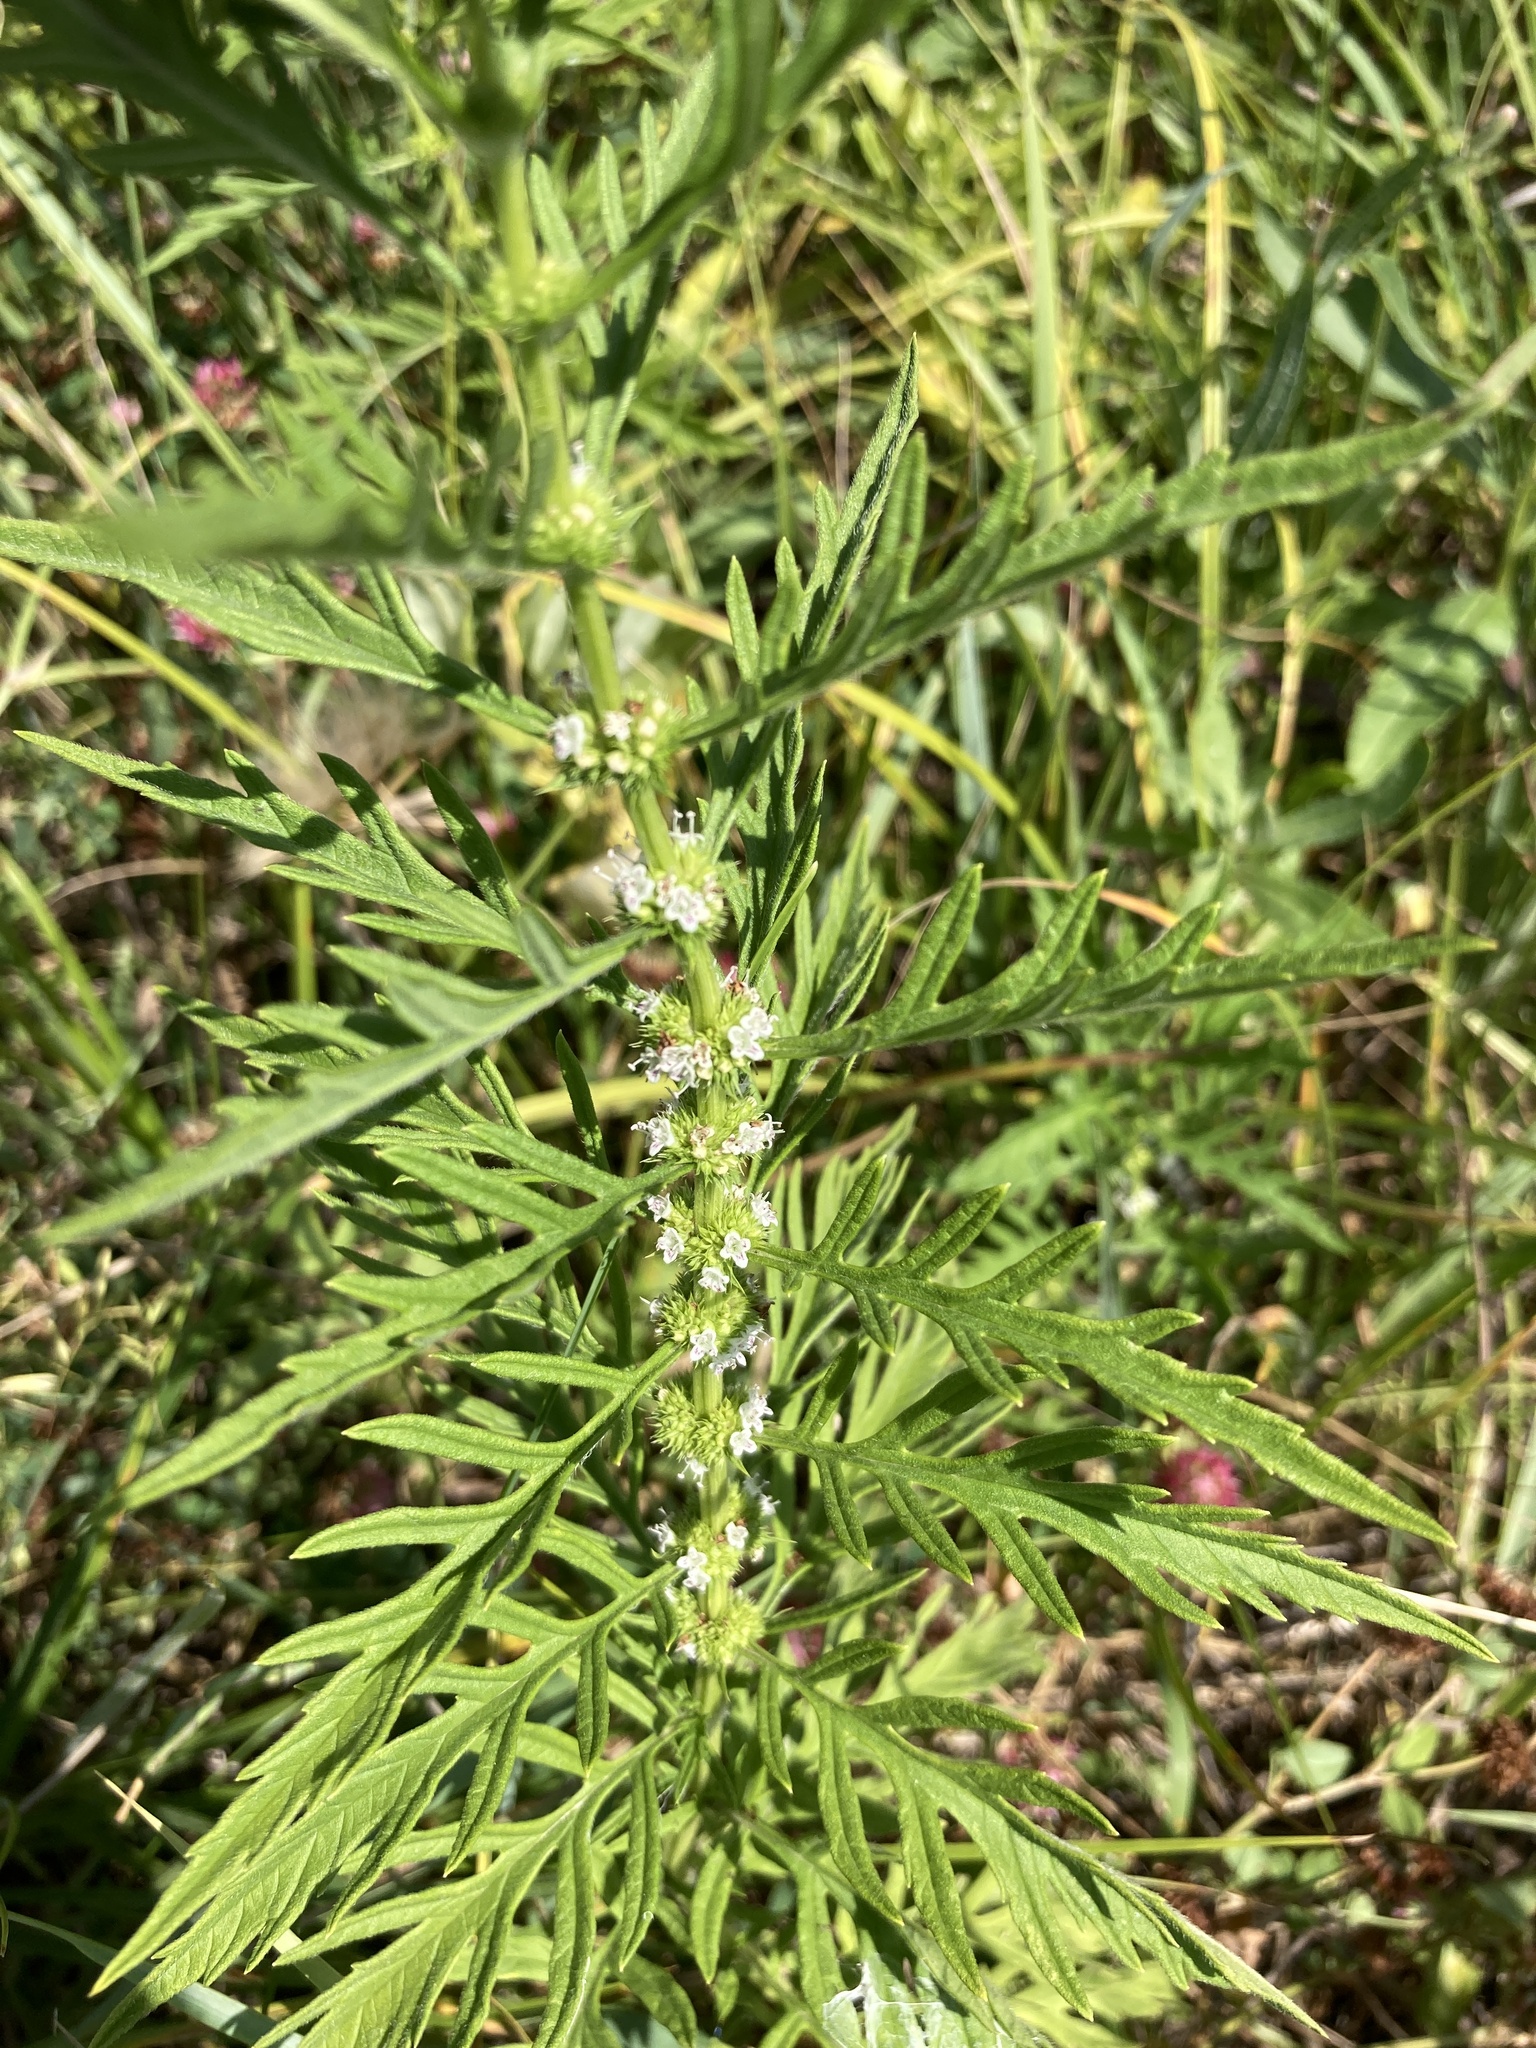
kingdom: Plantae
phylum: Tracheophyta
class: Magnoliopsida
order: Lamiales
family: Lamiaceae
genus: Lycopus
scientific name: Lycopus exaltatus
